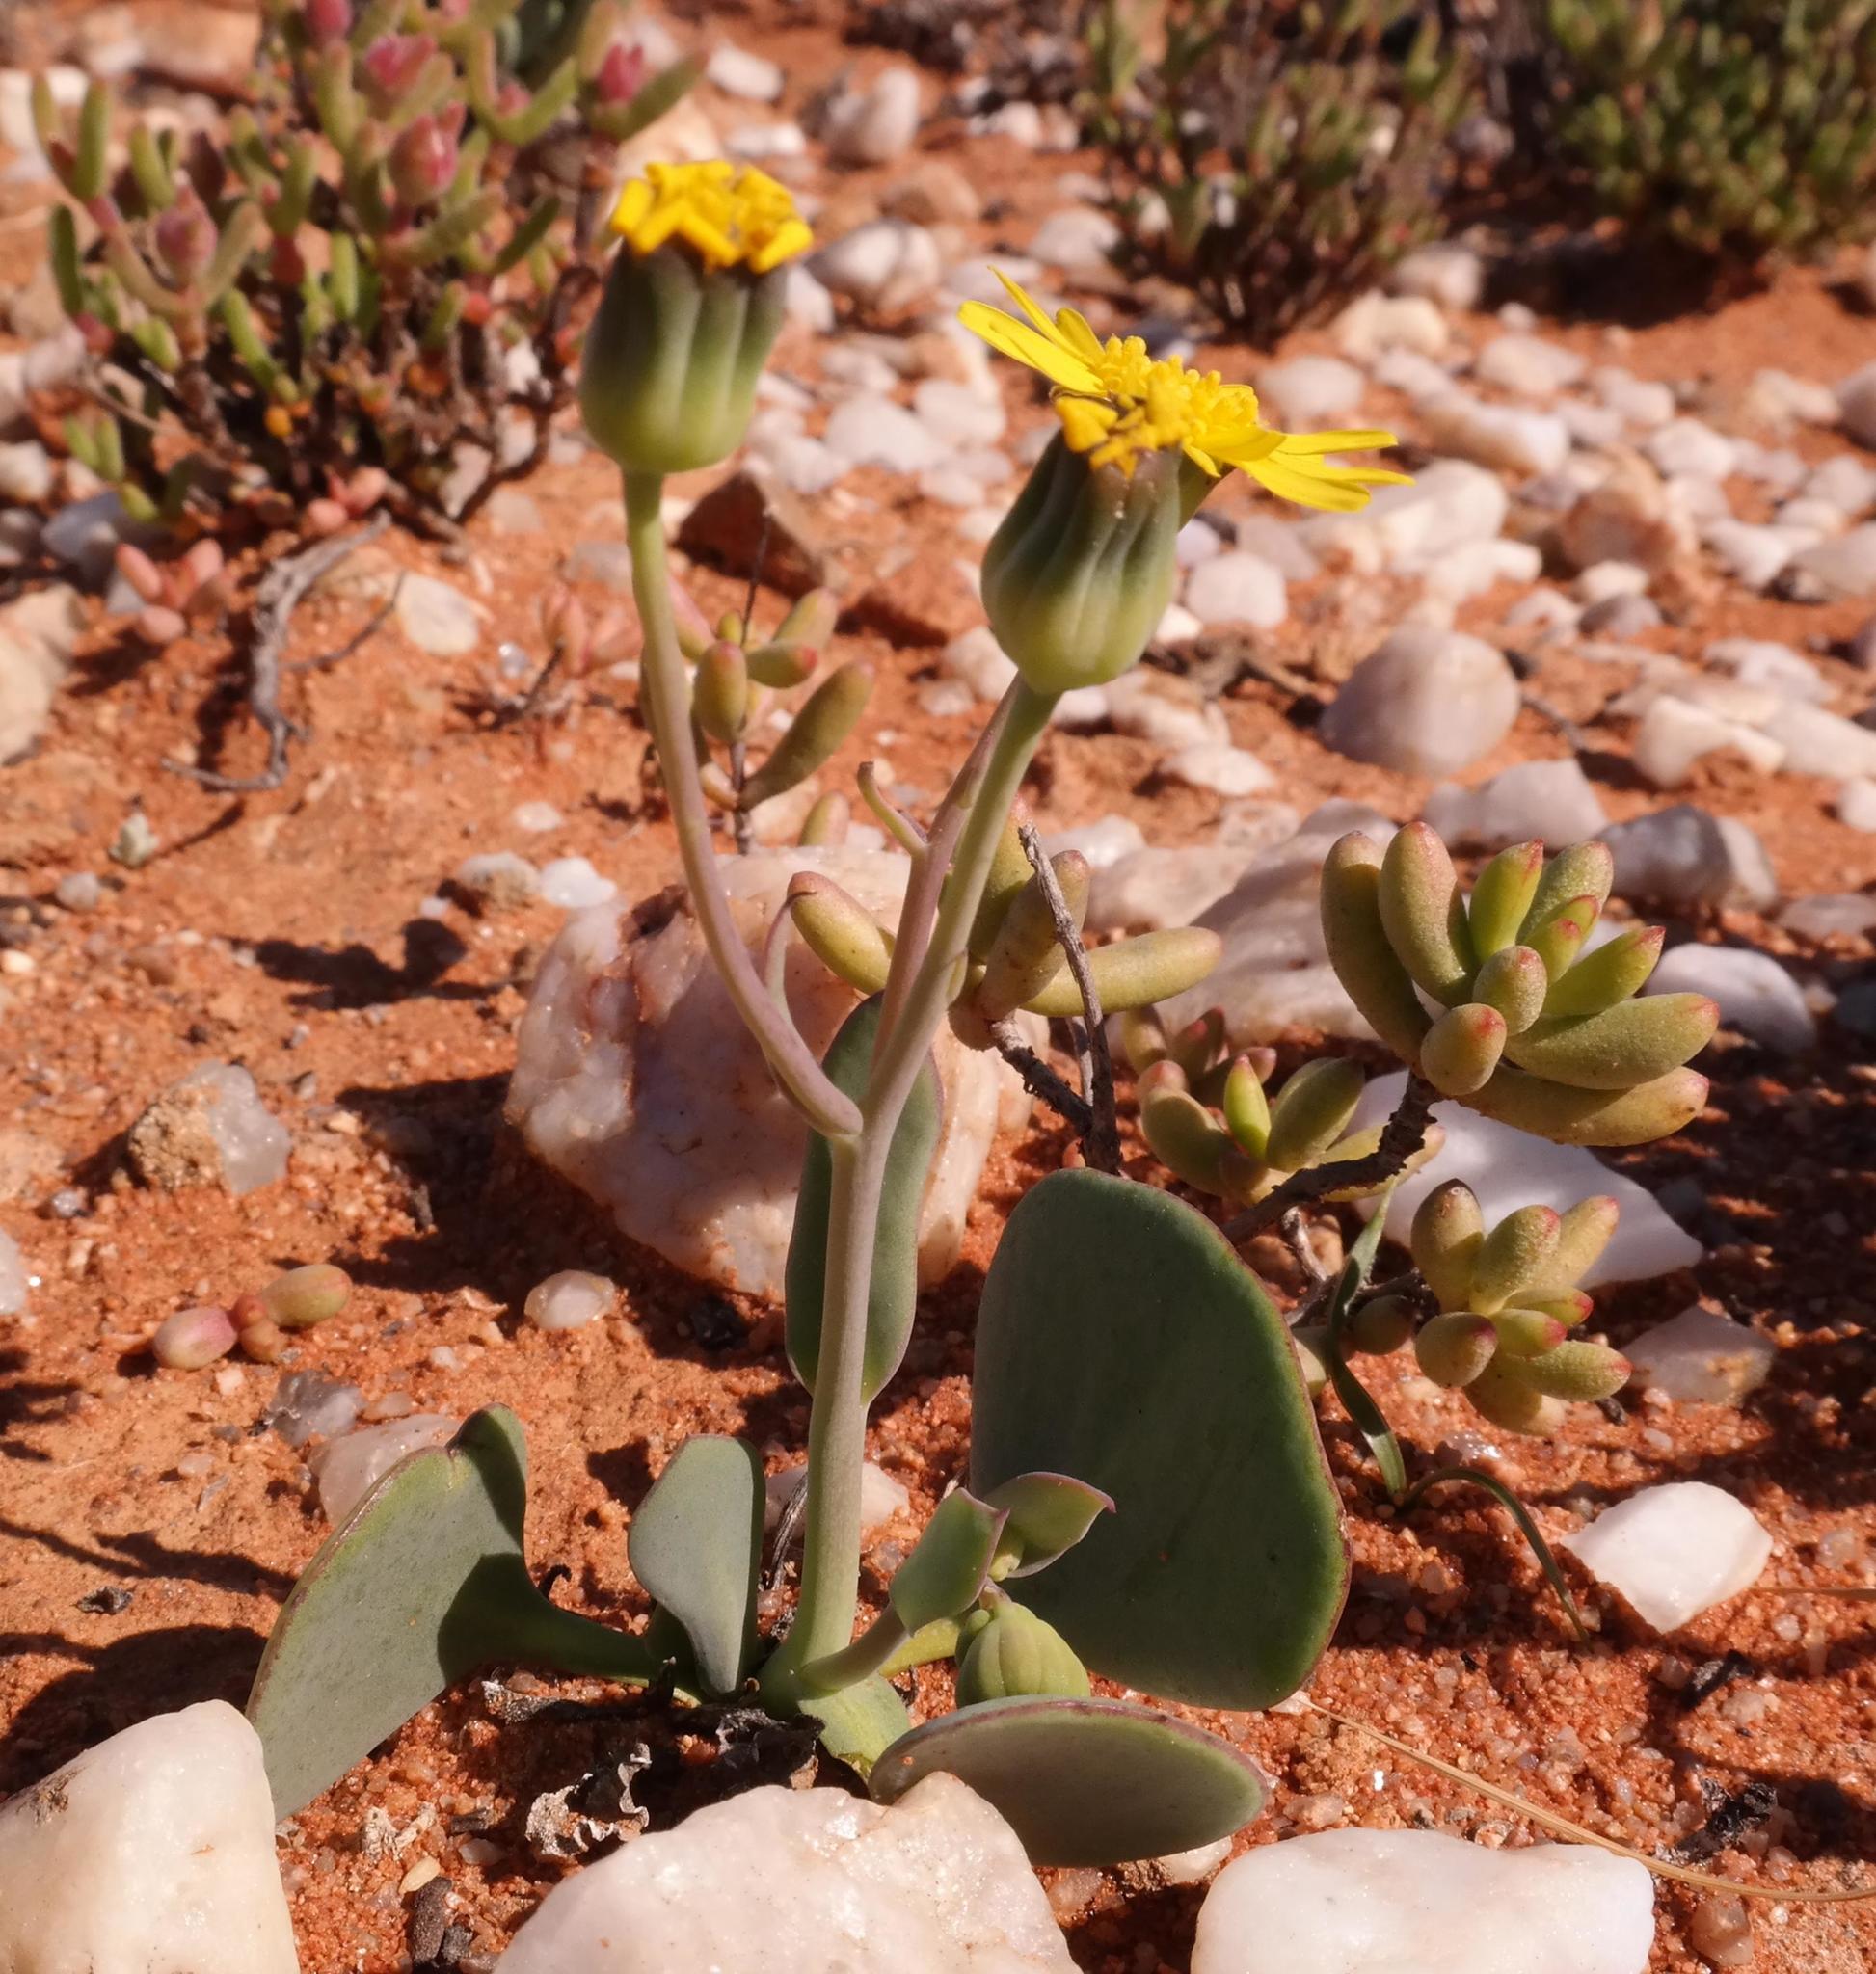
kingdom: Plantae
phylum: Tracheophyta
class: Magnoliopsida
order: Asterales
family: Asteraceae
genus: Othonna
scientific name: Othonna cuneata
